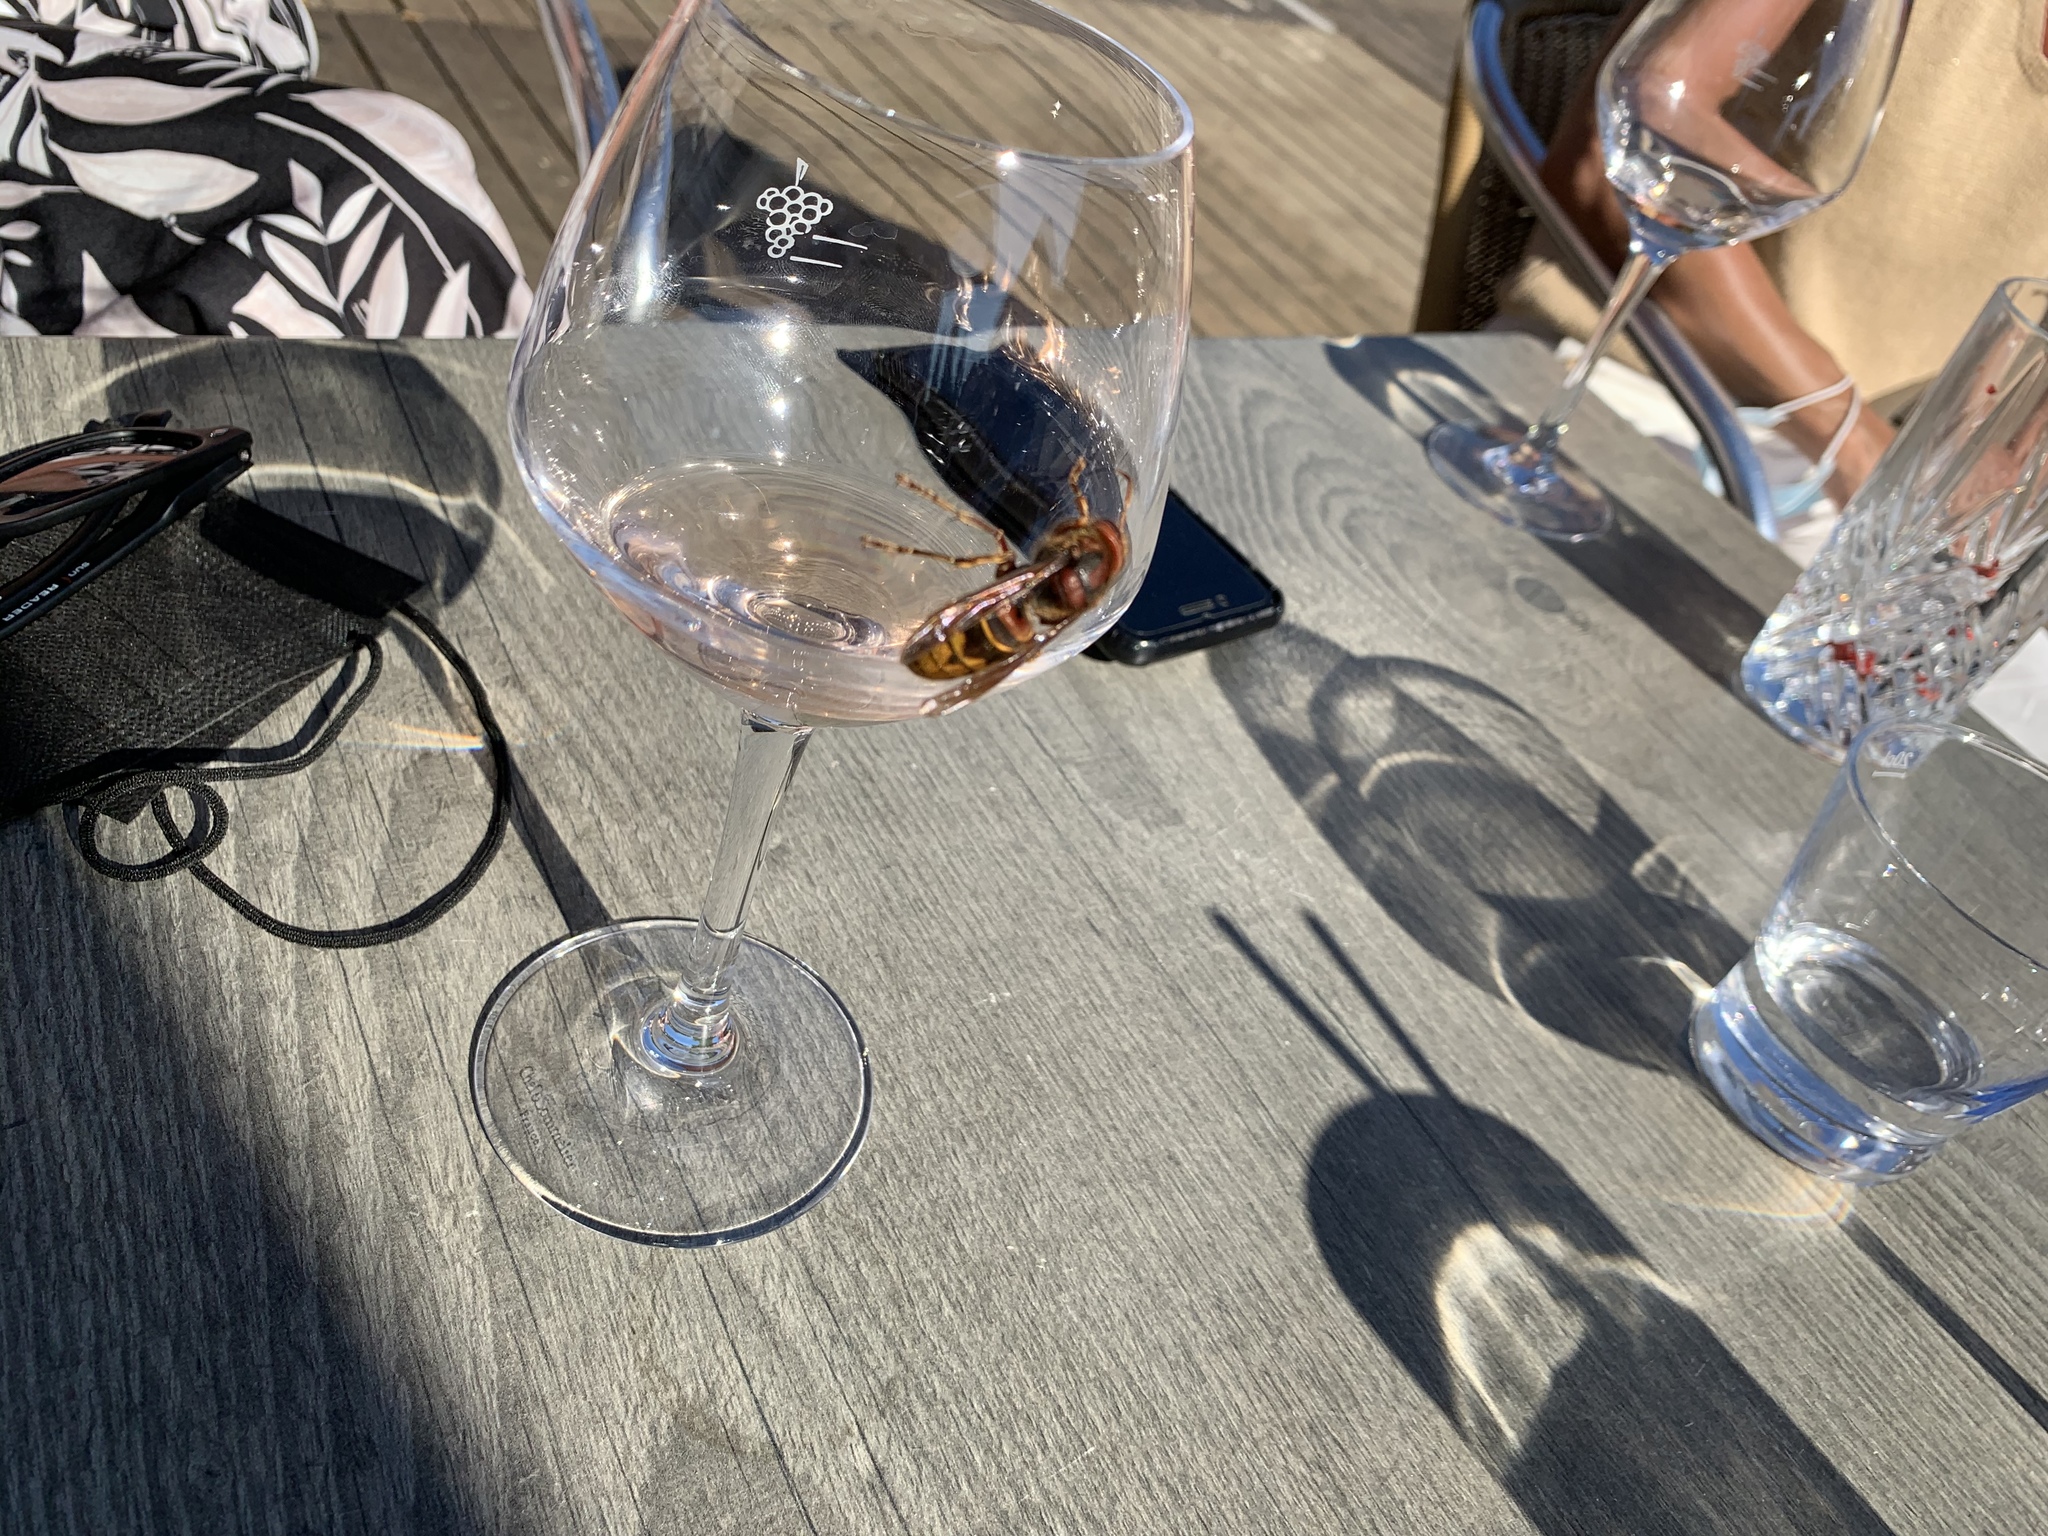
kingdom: Animalia
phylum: Arthropoda
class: Insecta
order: Hymenoptera
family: Vespidae
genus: Vespa
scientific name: Vespa crabro
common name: Hornet
